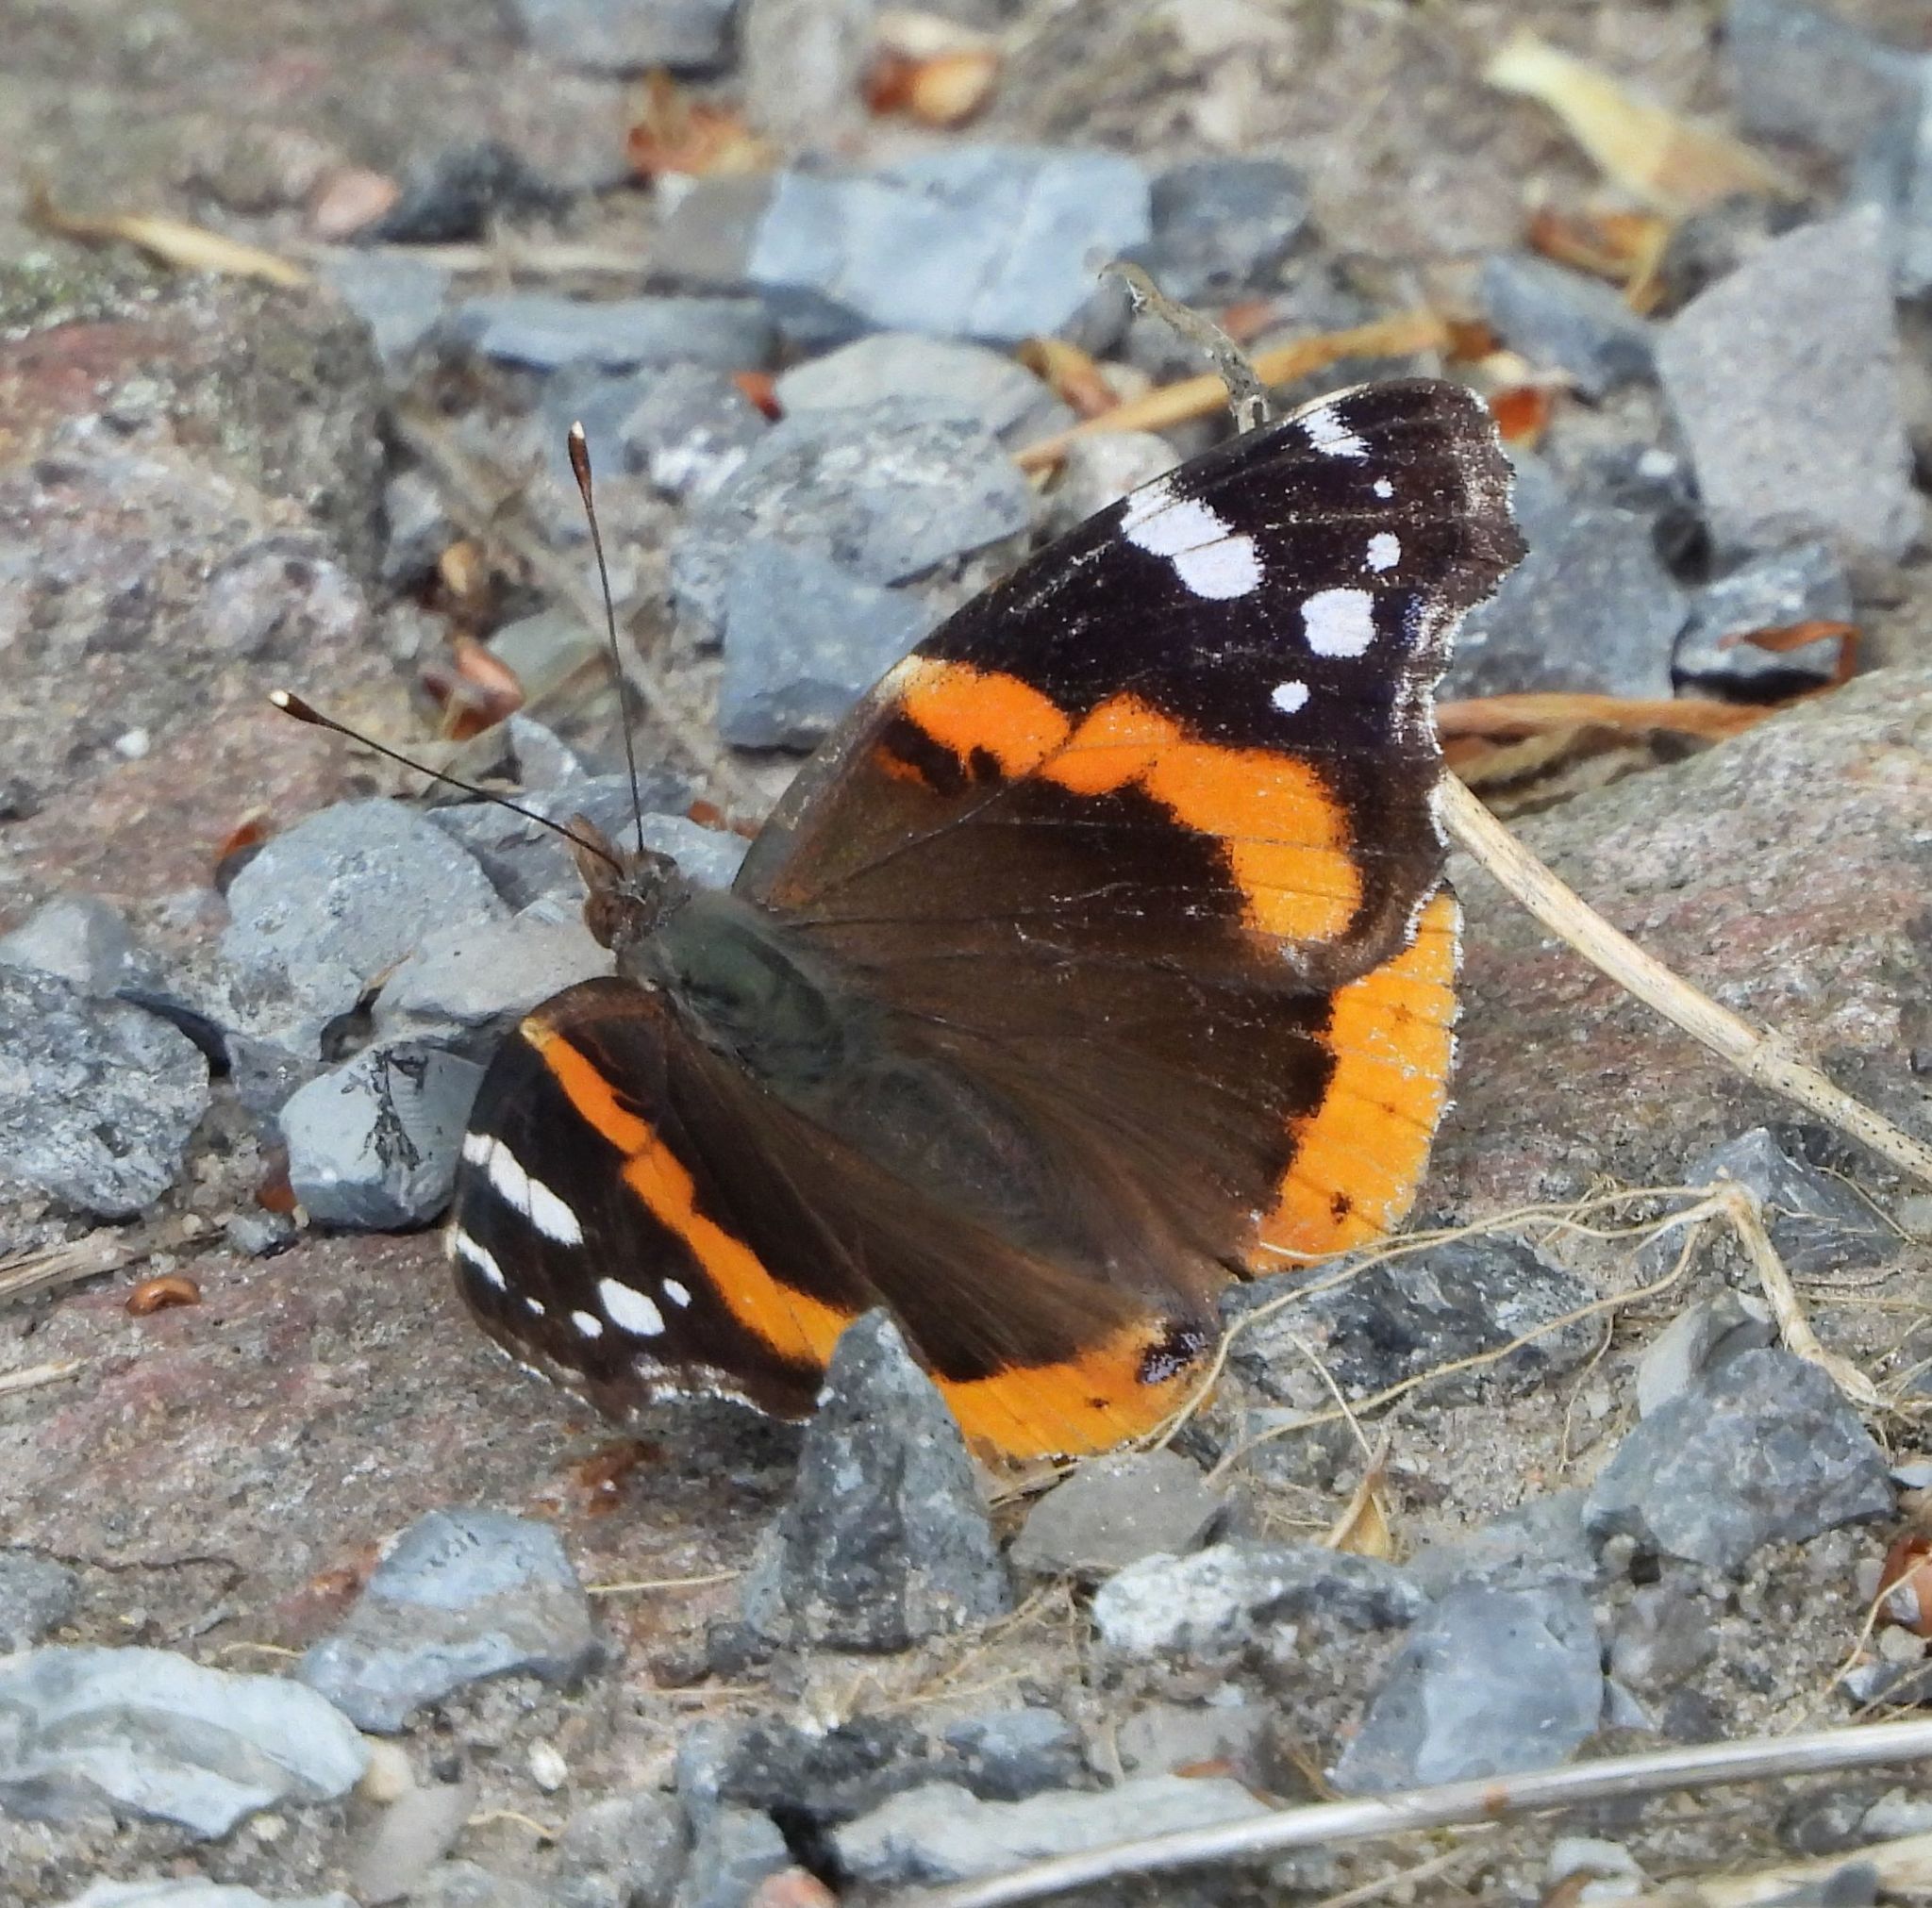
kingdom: Animalia
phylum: Arthropoda
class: Insecta
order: Lepidoptera
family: Nymphalidae
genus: Vanessa
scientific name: Vanessa atalanta
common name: Red admiral
